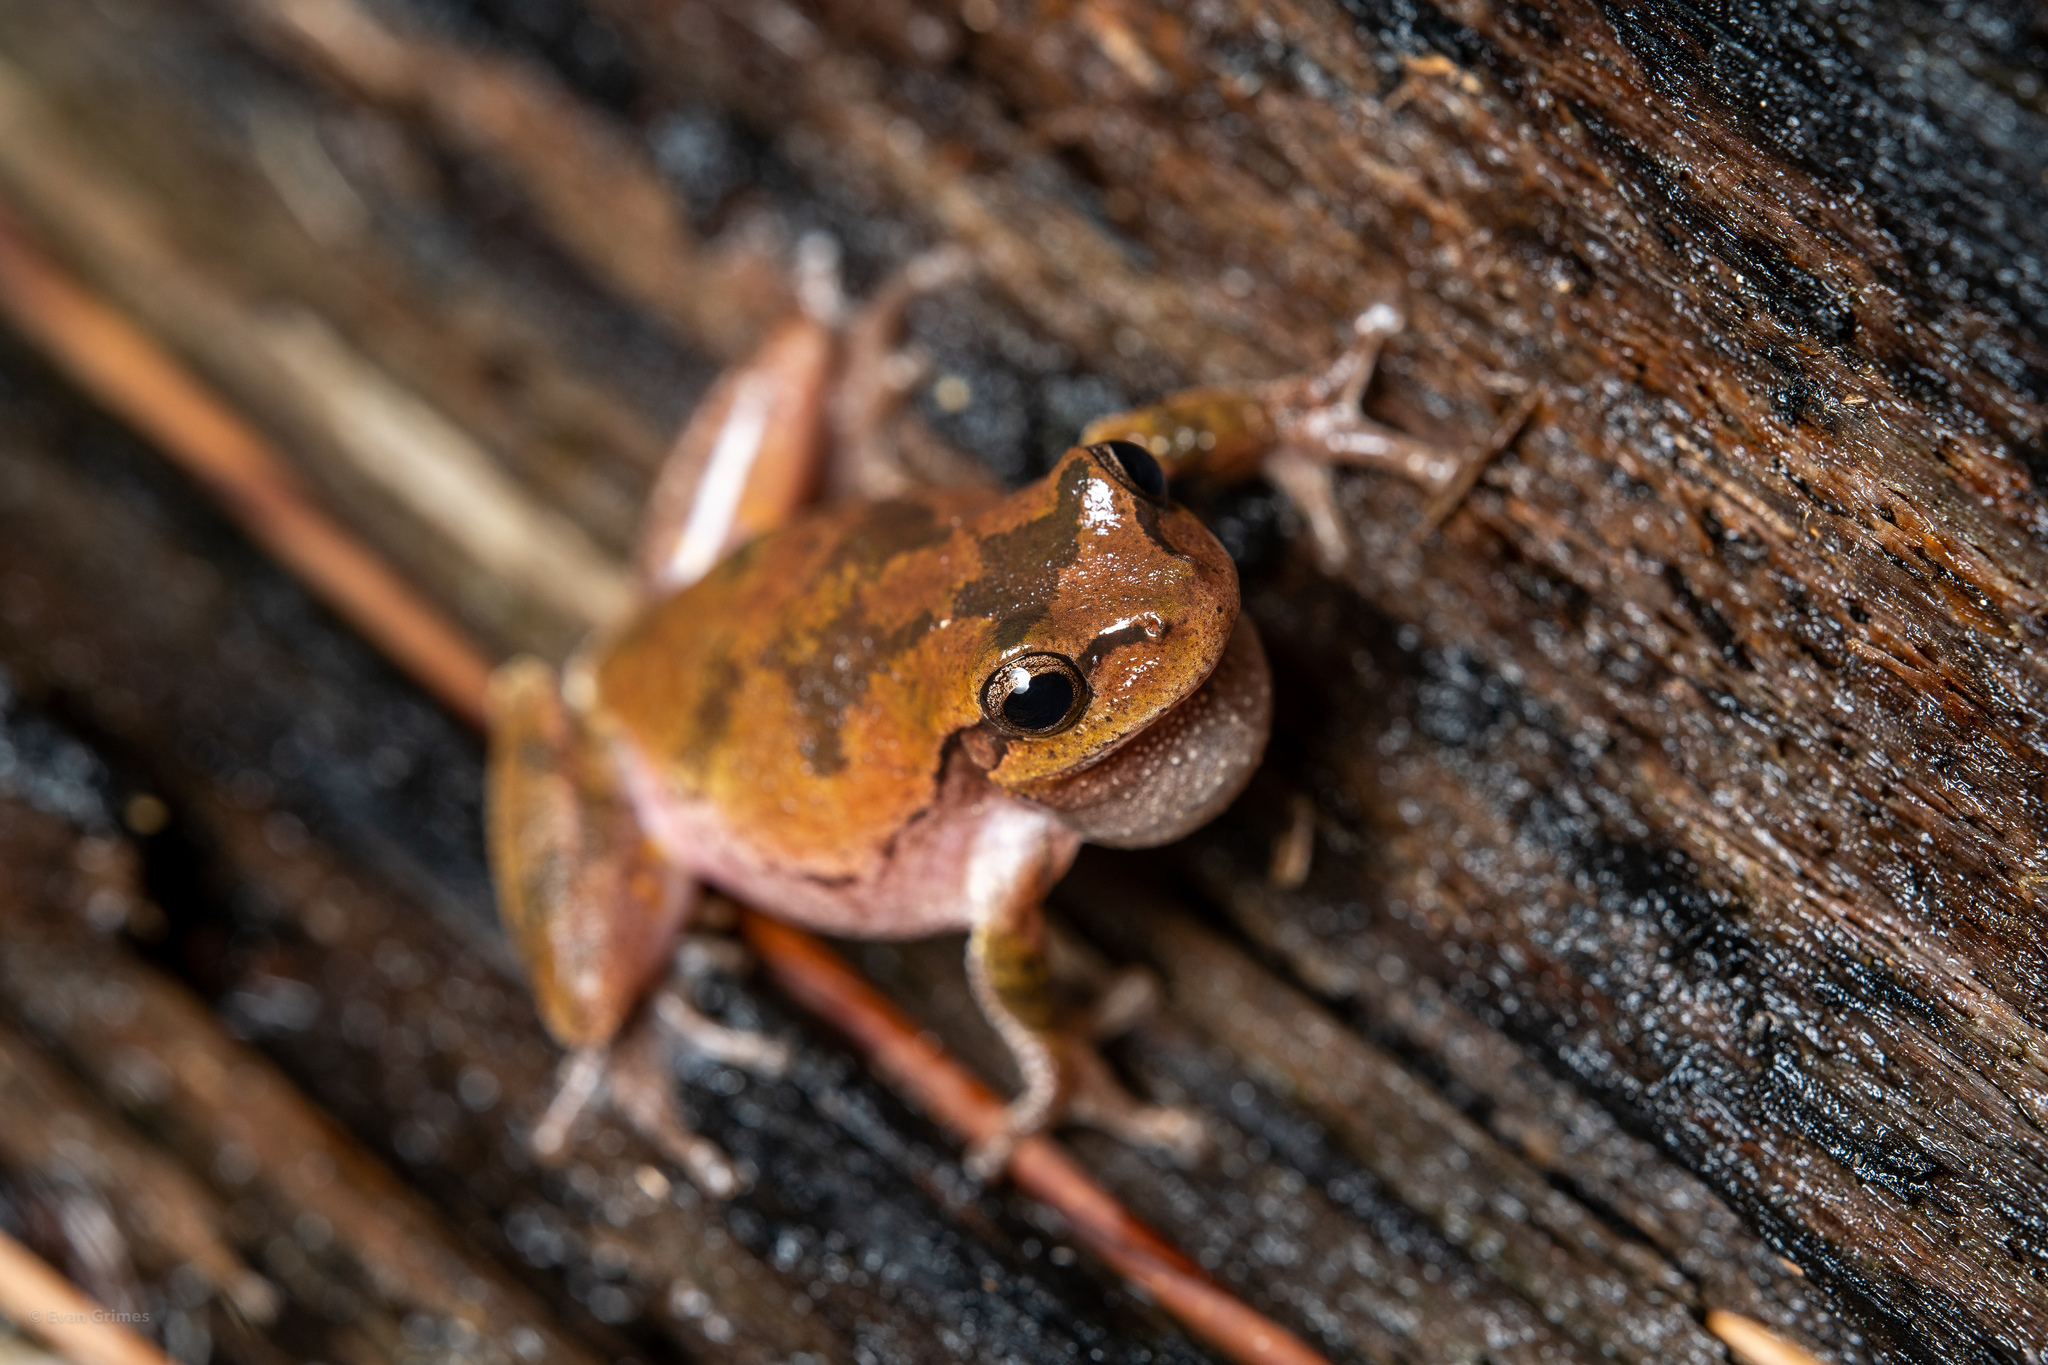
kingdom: Animalia
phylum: Chordata
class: Amphibia
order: Anura
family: Hylidae
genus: Hyla
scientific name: Hyla femoralis
